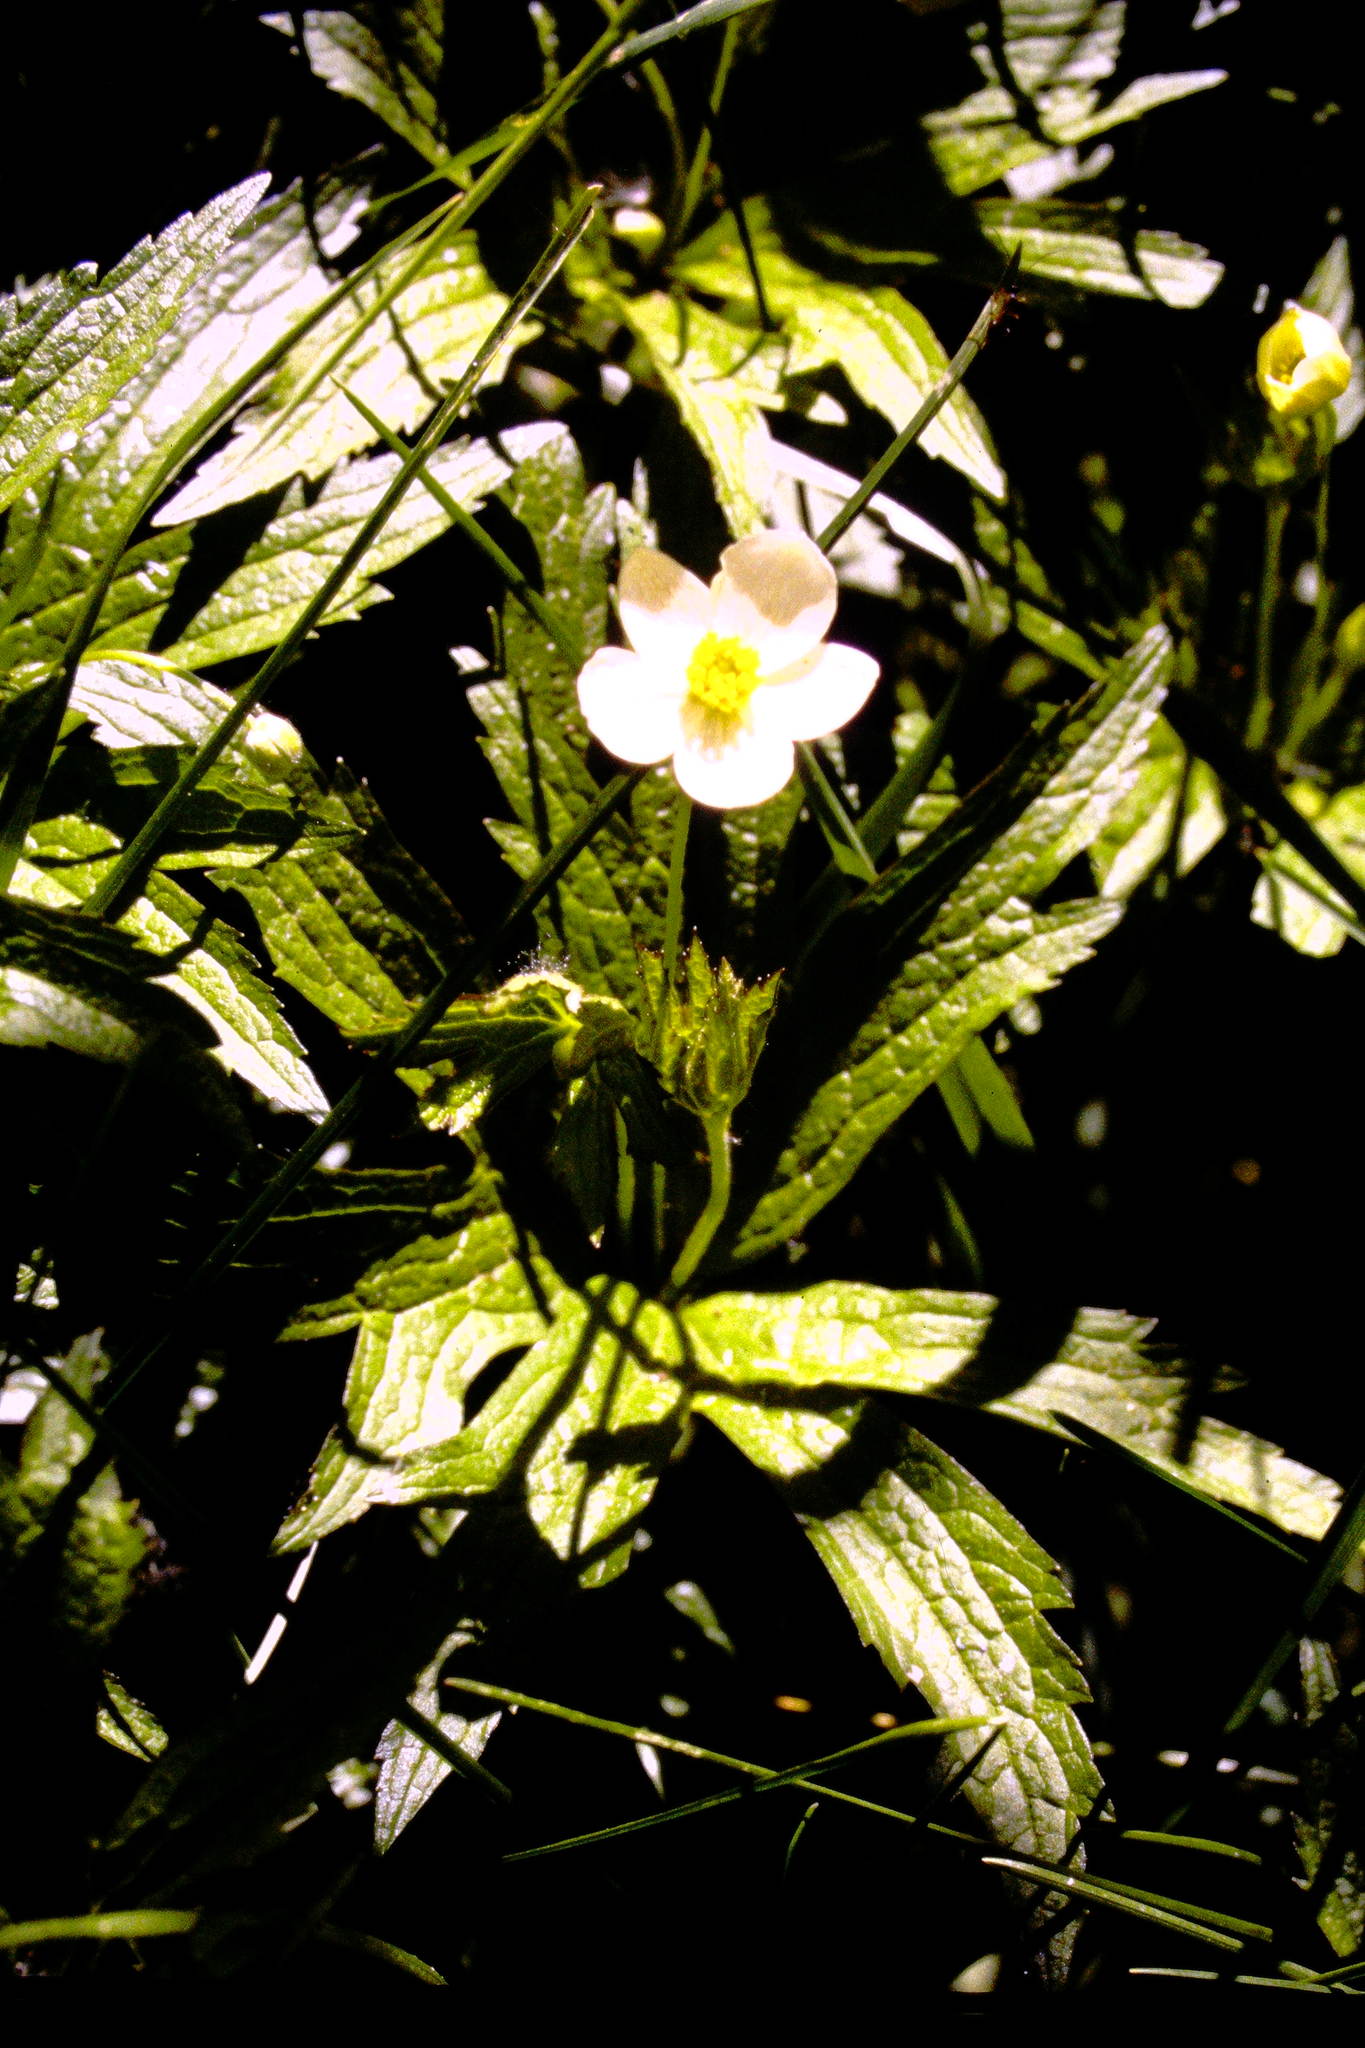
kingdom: Plantae
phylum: Tracheophyta
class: Magnoliopsida
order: Ranunculales
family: Ranunculaceae
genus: Anemonastrum
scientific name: Anemonastrum canadense
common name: Canada anemone
